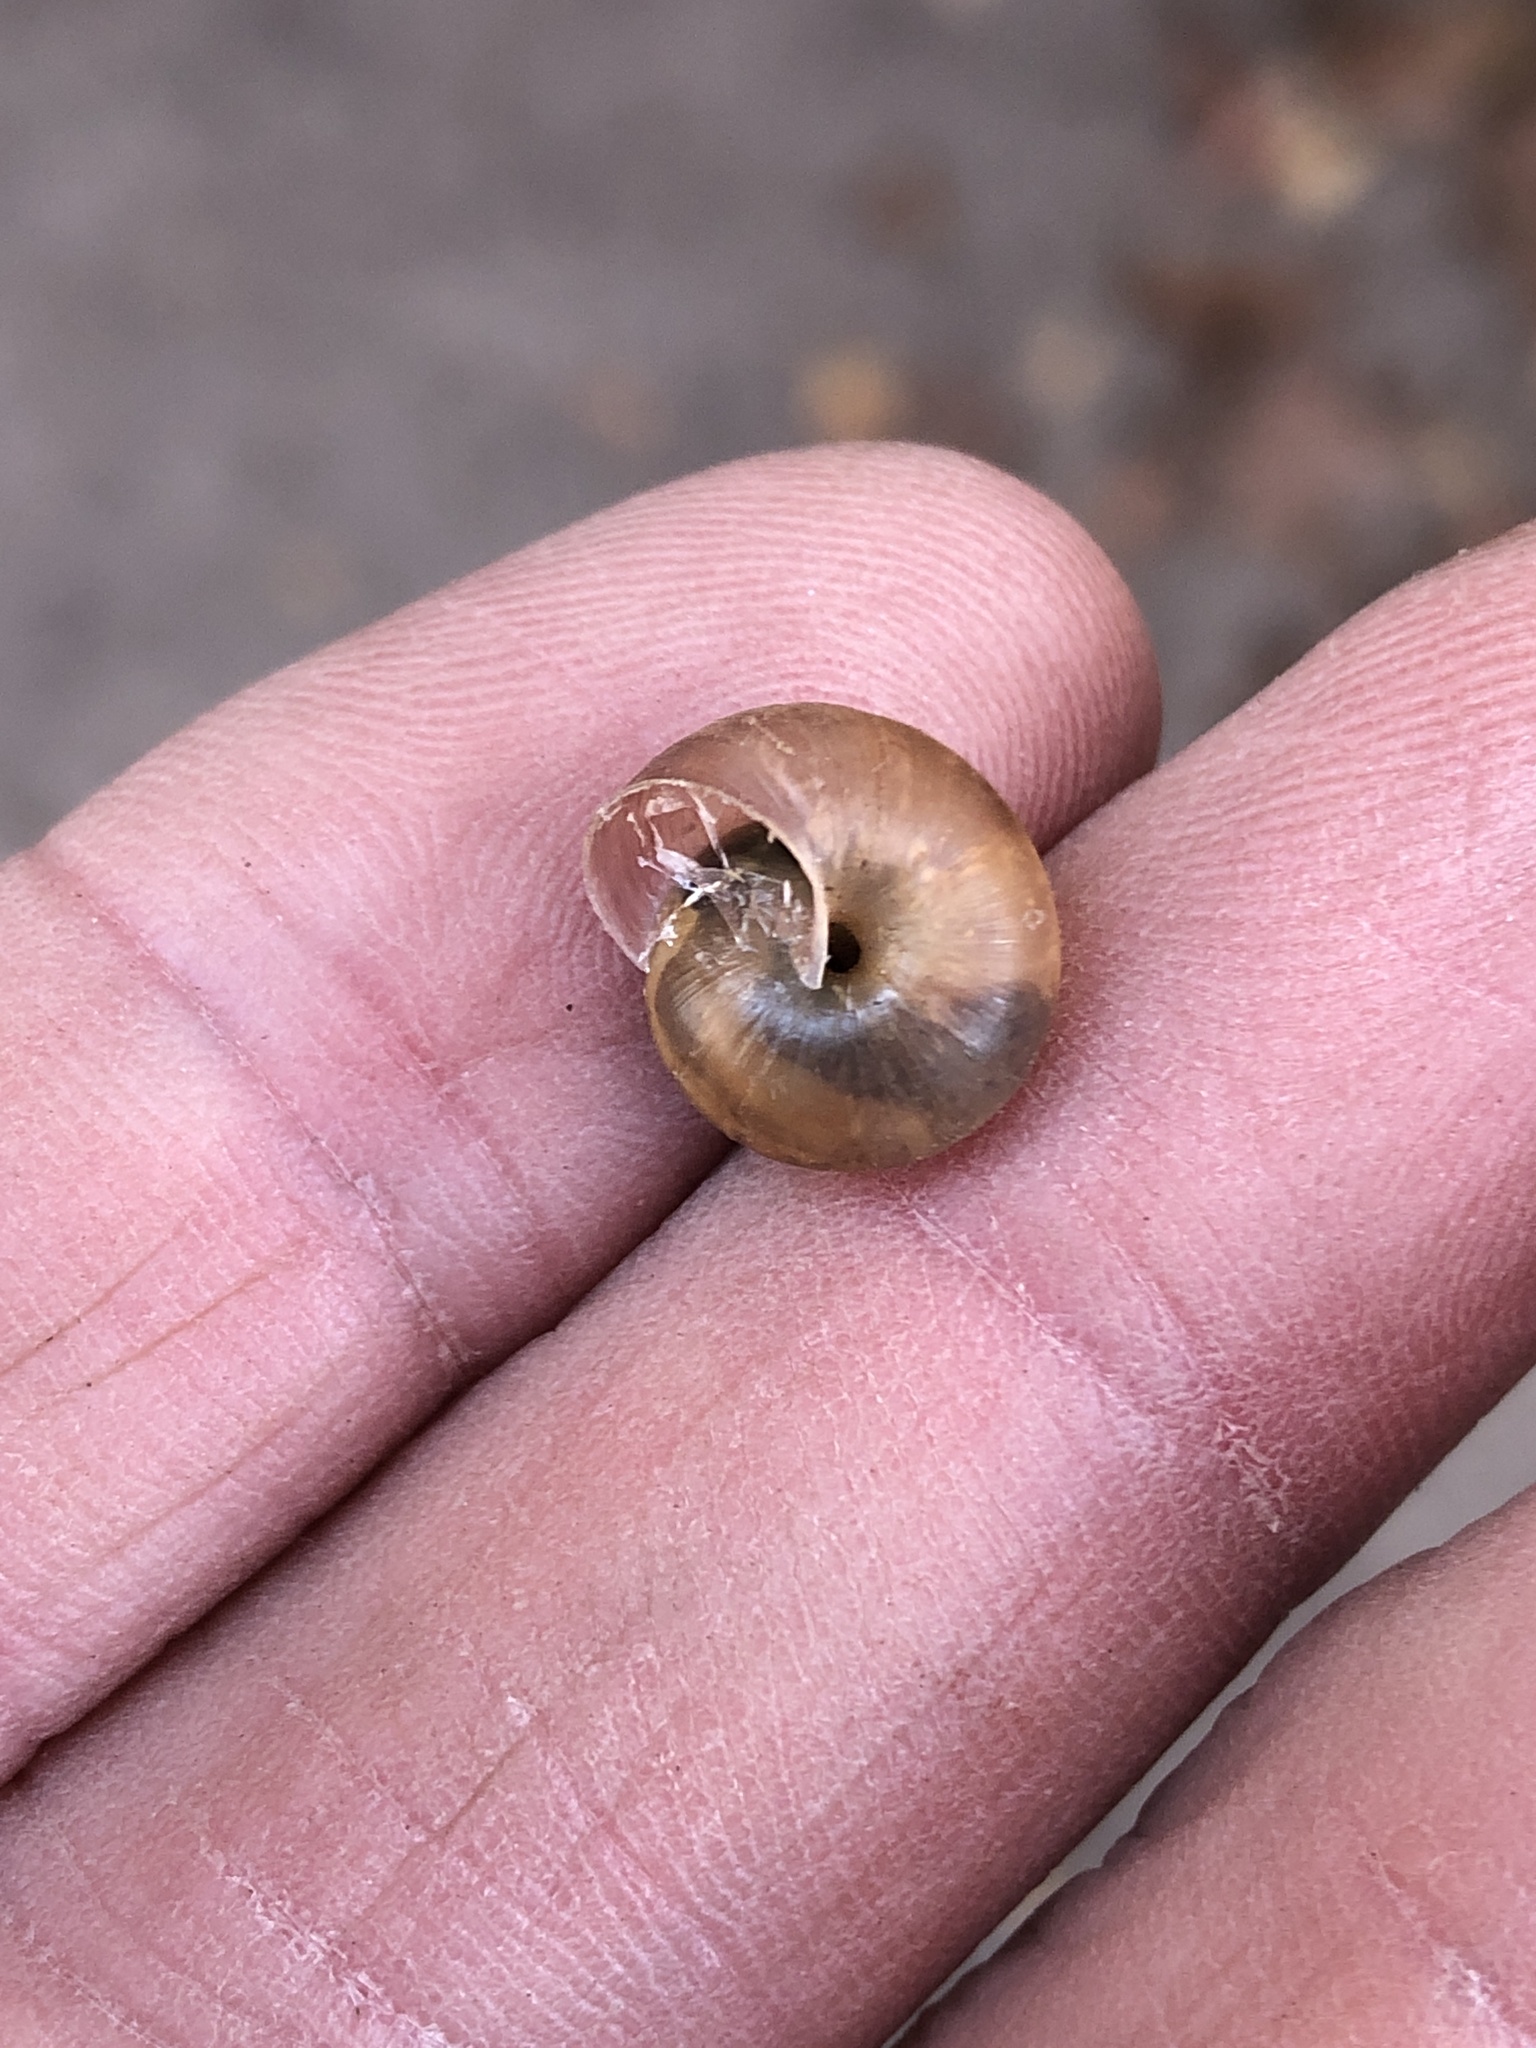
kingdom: Animalia
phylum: Mollusca
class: Gastropoda
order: Stylommatophora
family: Camaenidae
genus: Bradybaena
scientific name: Bradybaena similaris
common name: Asian trampsnail
